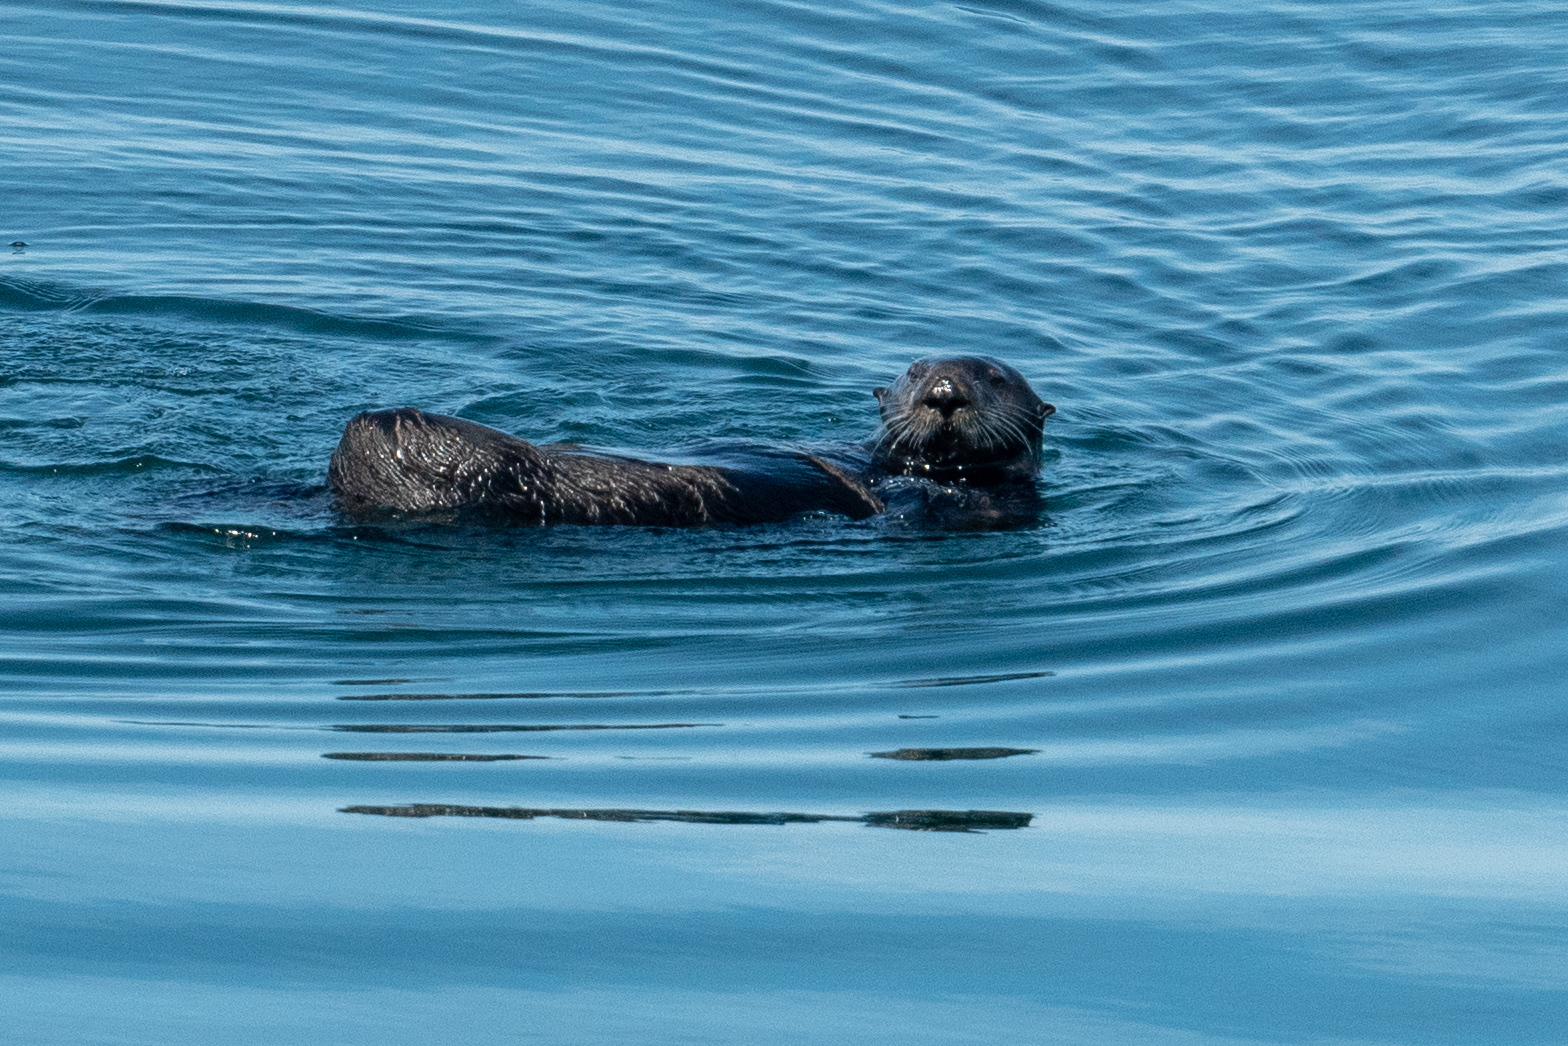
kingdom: Animalia
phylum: Chordata
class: Mammalia
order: Carnivora
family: Mustelidae
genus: Enhydra
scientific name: Enhydra lutris
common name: Sea otter
